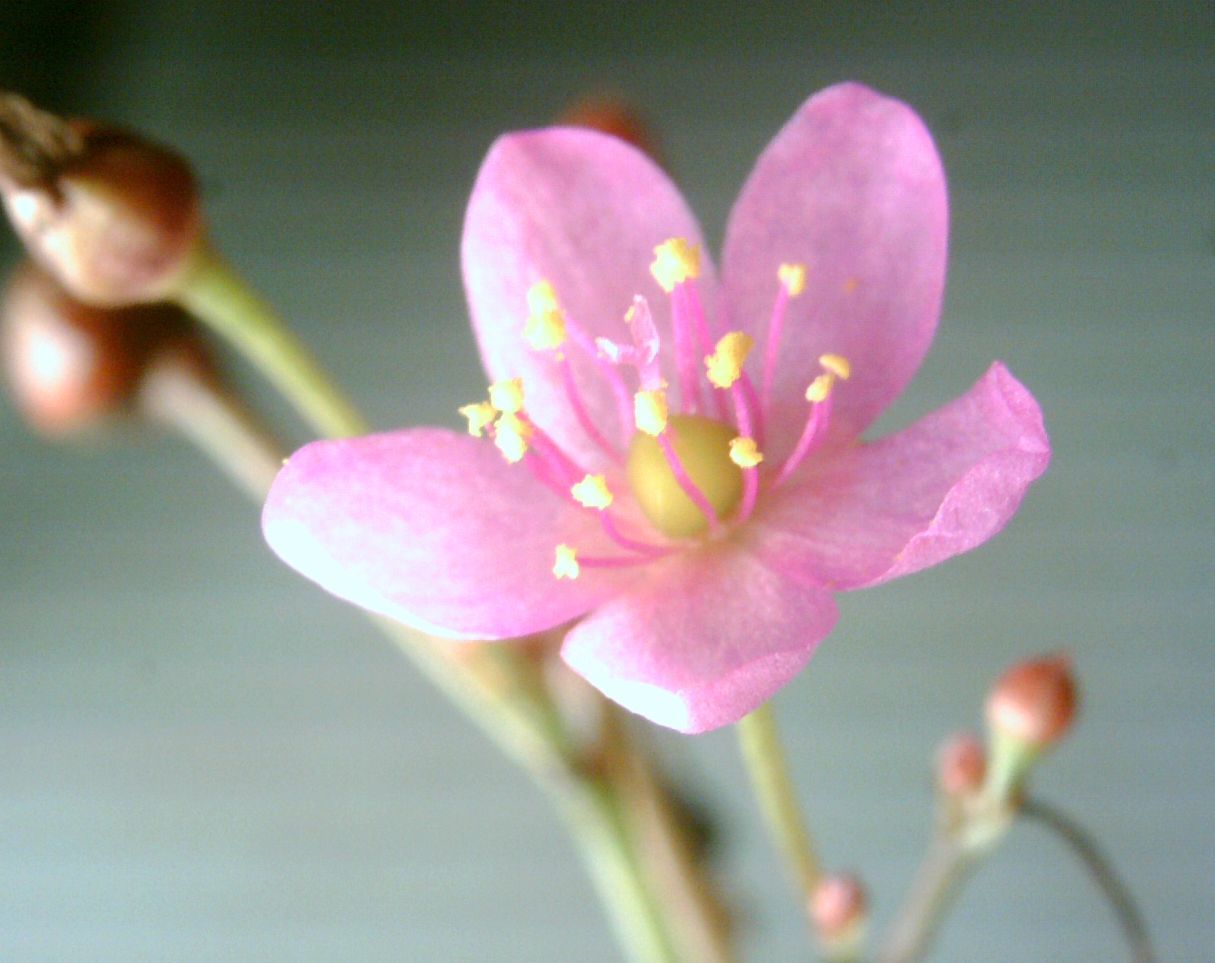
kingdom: Plantae
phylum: Tracheophyta
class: Magnoliopsida
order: Caryophyllales
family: Talinaceae
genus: Talinum
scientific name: Talinum paniculatum
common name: Jewels of opar
